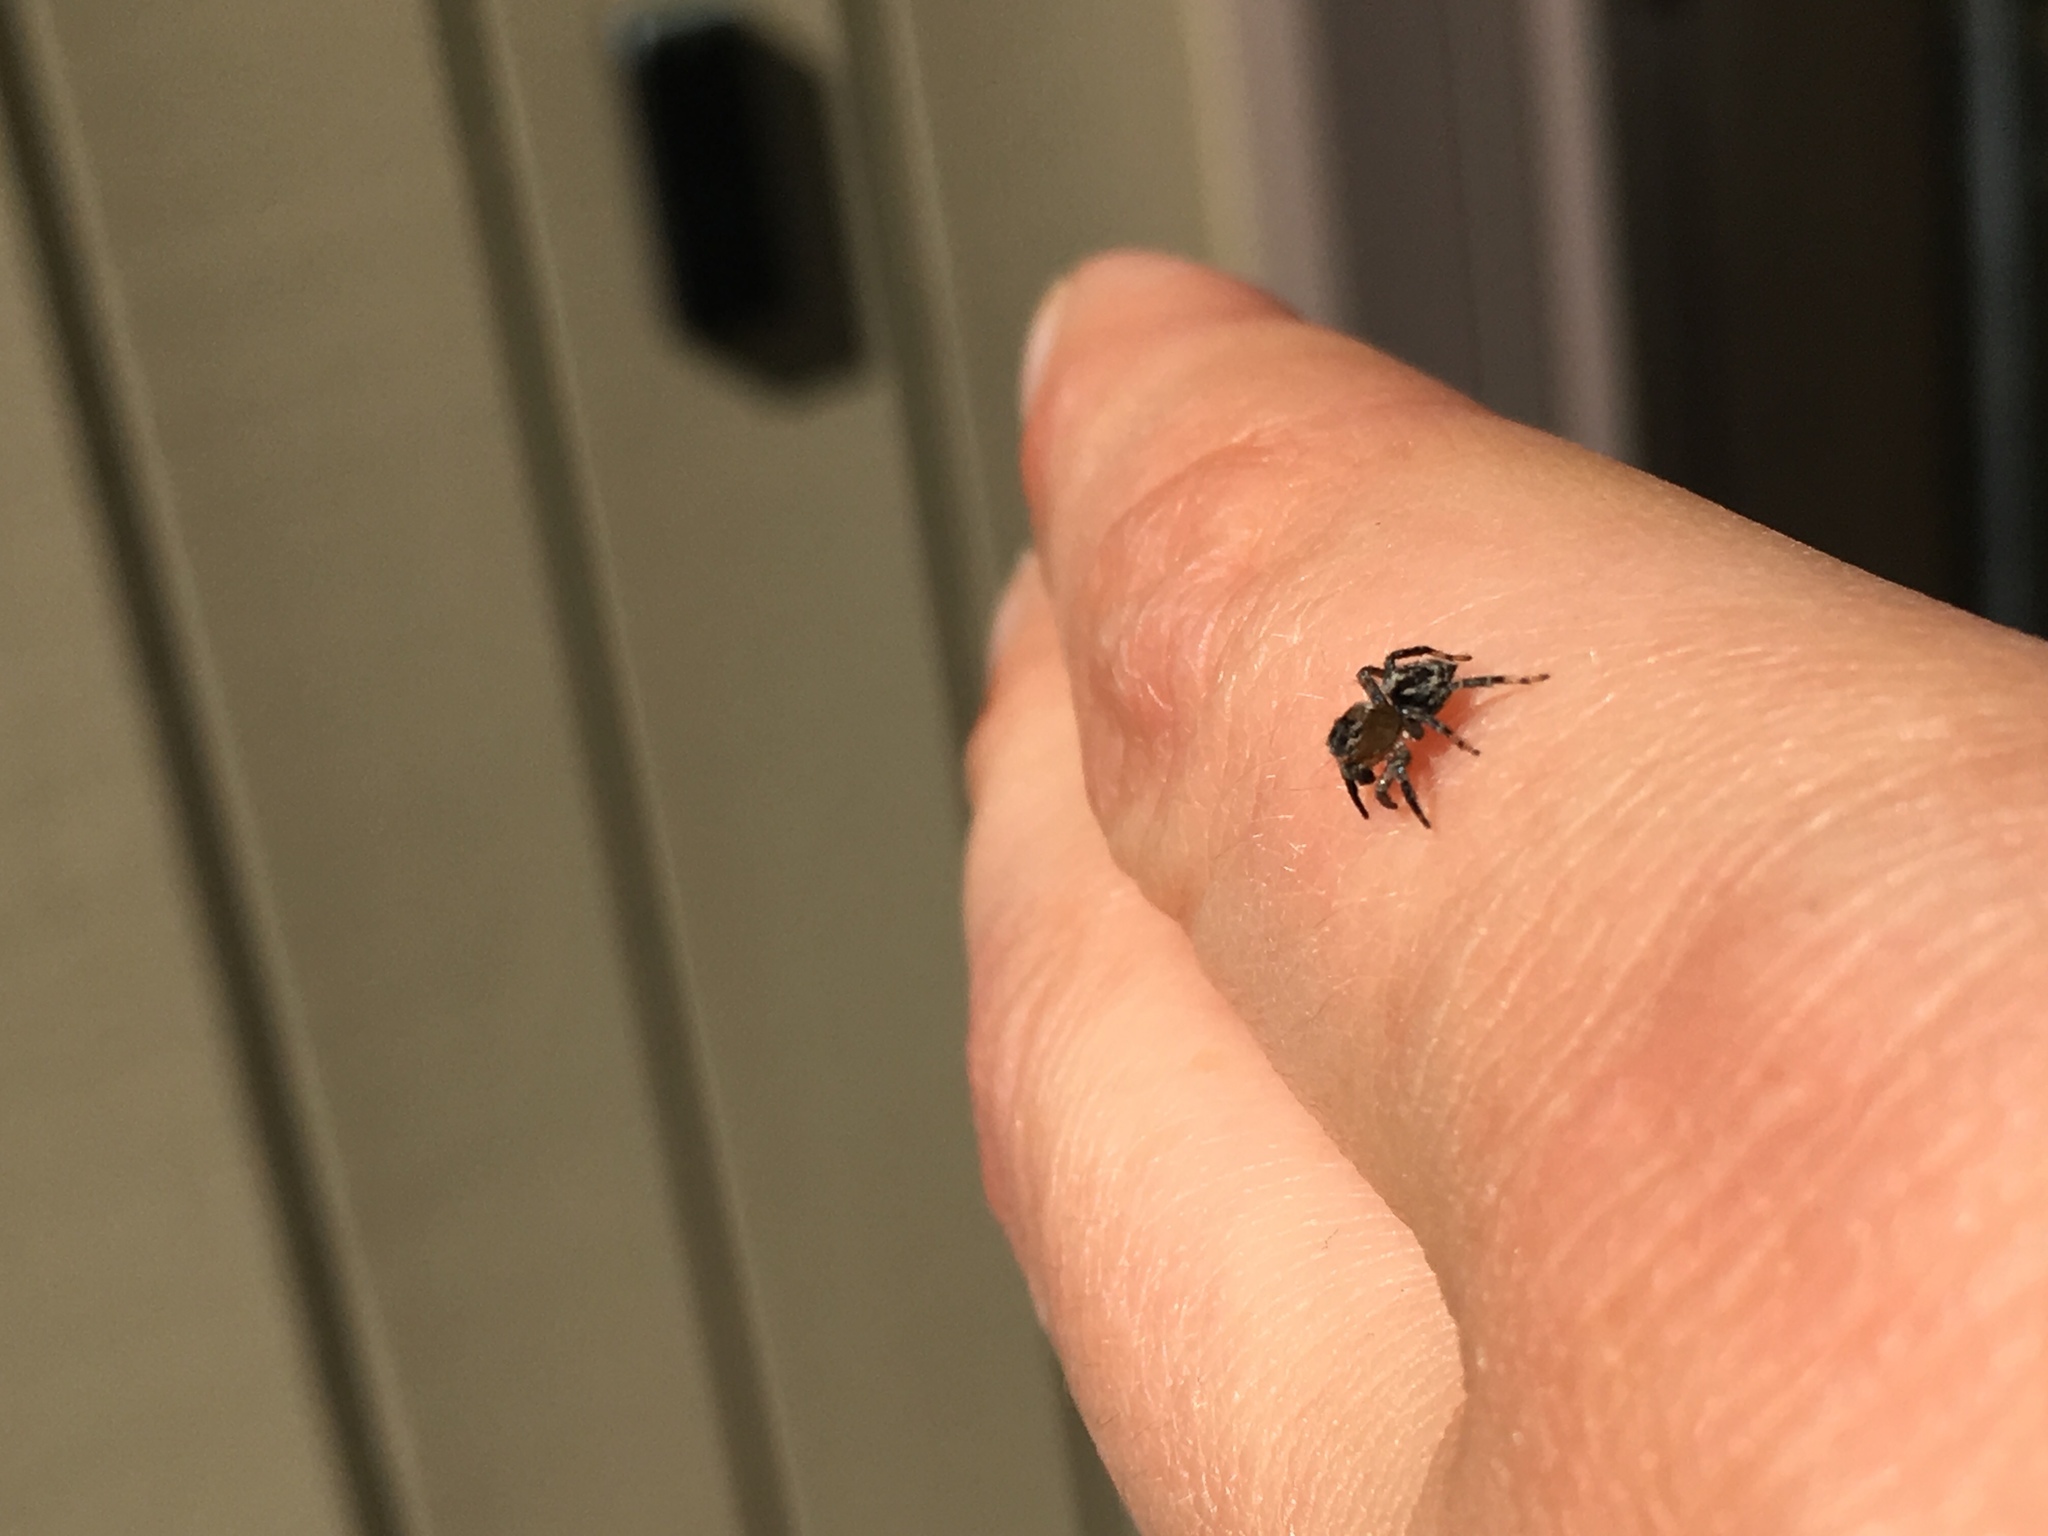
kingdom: Animalia
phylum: Arthropoda
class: Arachnida
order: Araneae
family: Salticidae
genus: Naphrys
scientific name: Naphrys pulex
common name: Flea jumping spider
